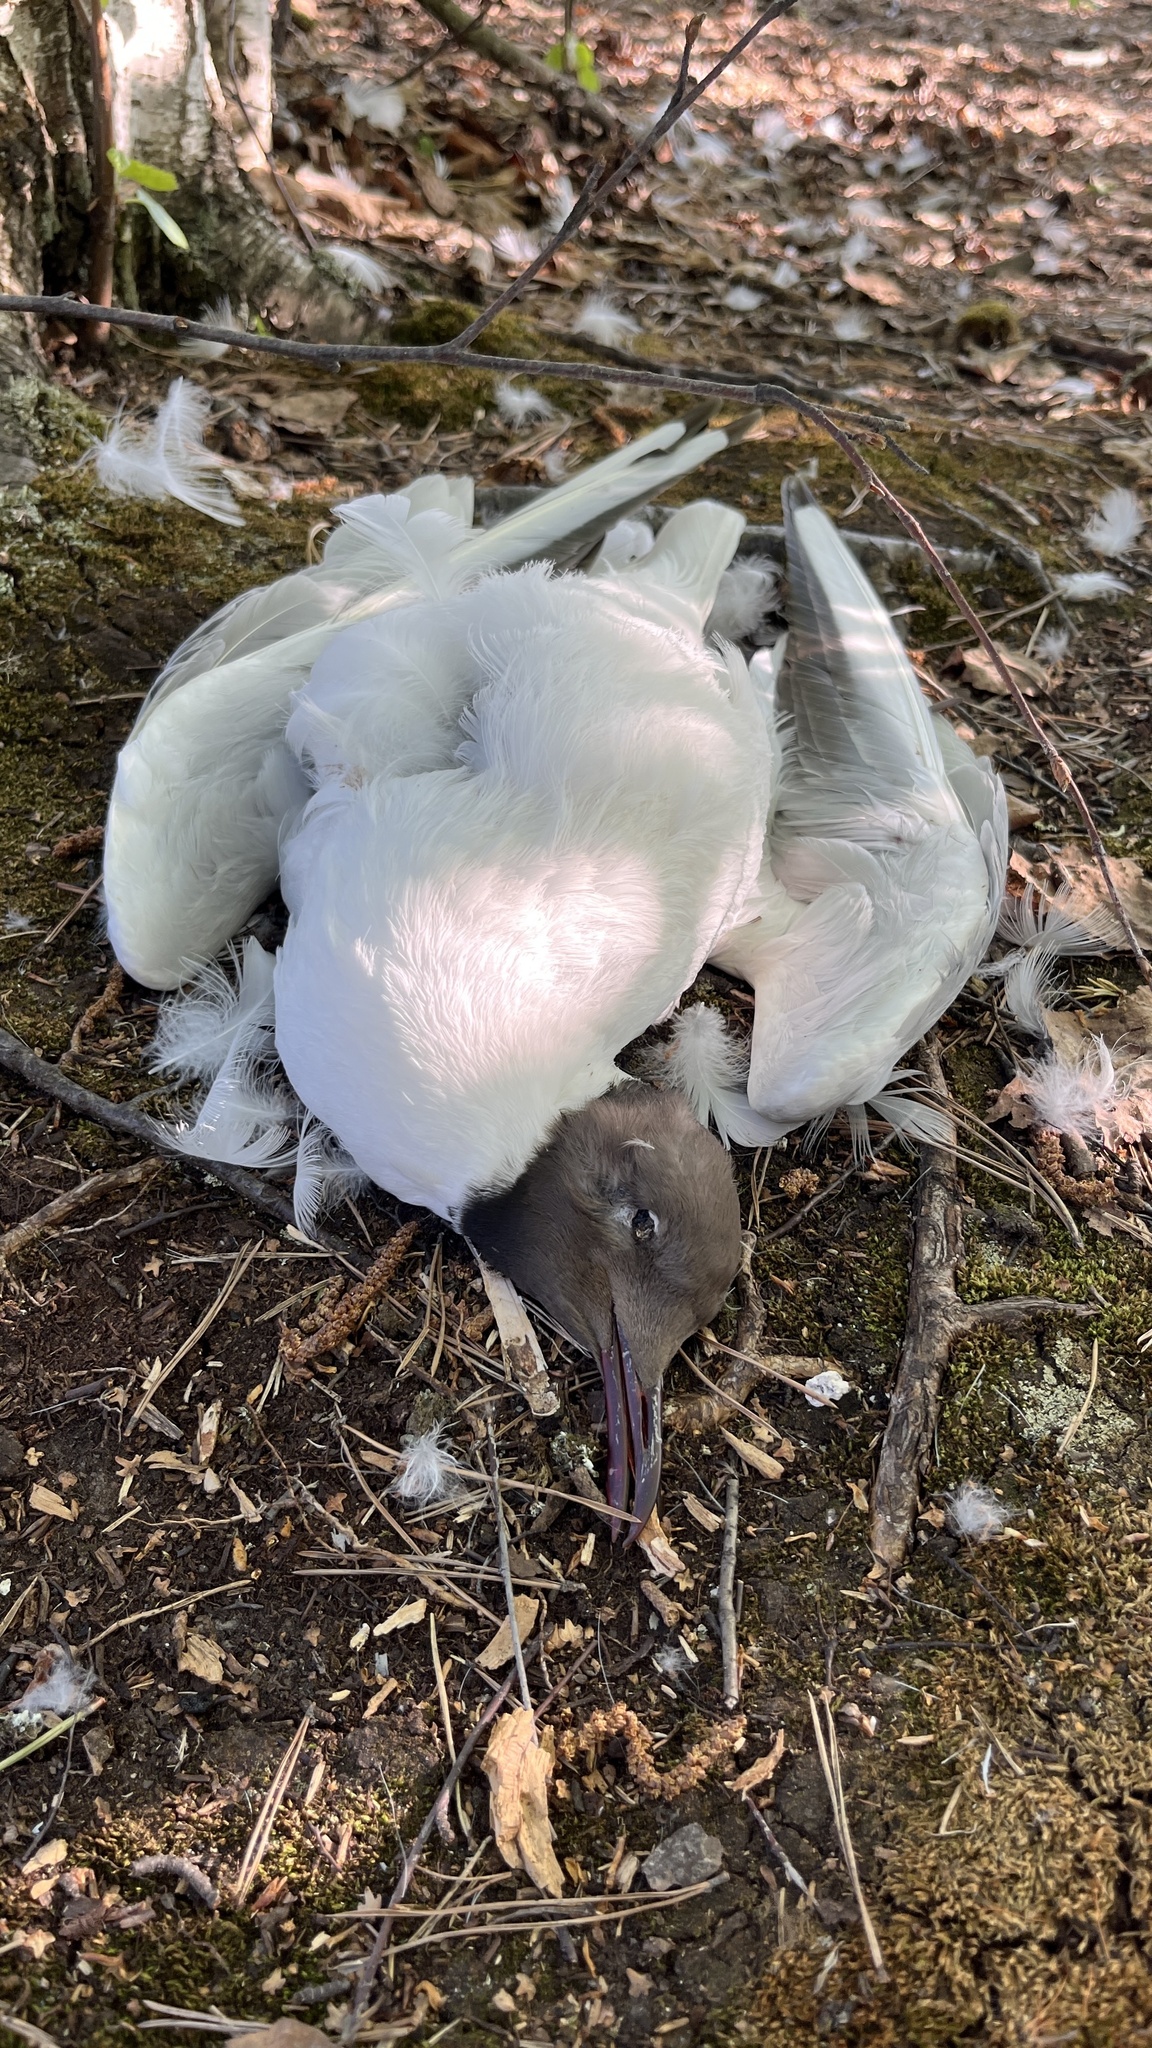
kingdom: Animalia
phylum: Chordata
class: Aves
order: Charadriiformes
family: Laridae
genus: Chroicocephalus
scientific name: Chroicocephalus ridibundus
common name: Black-headed gull
